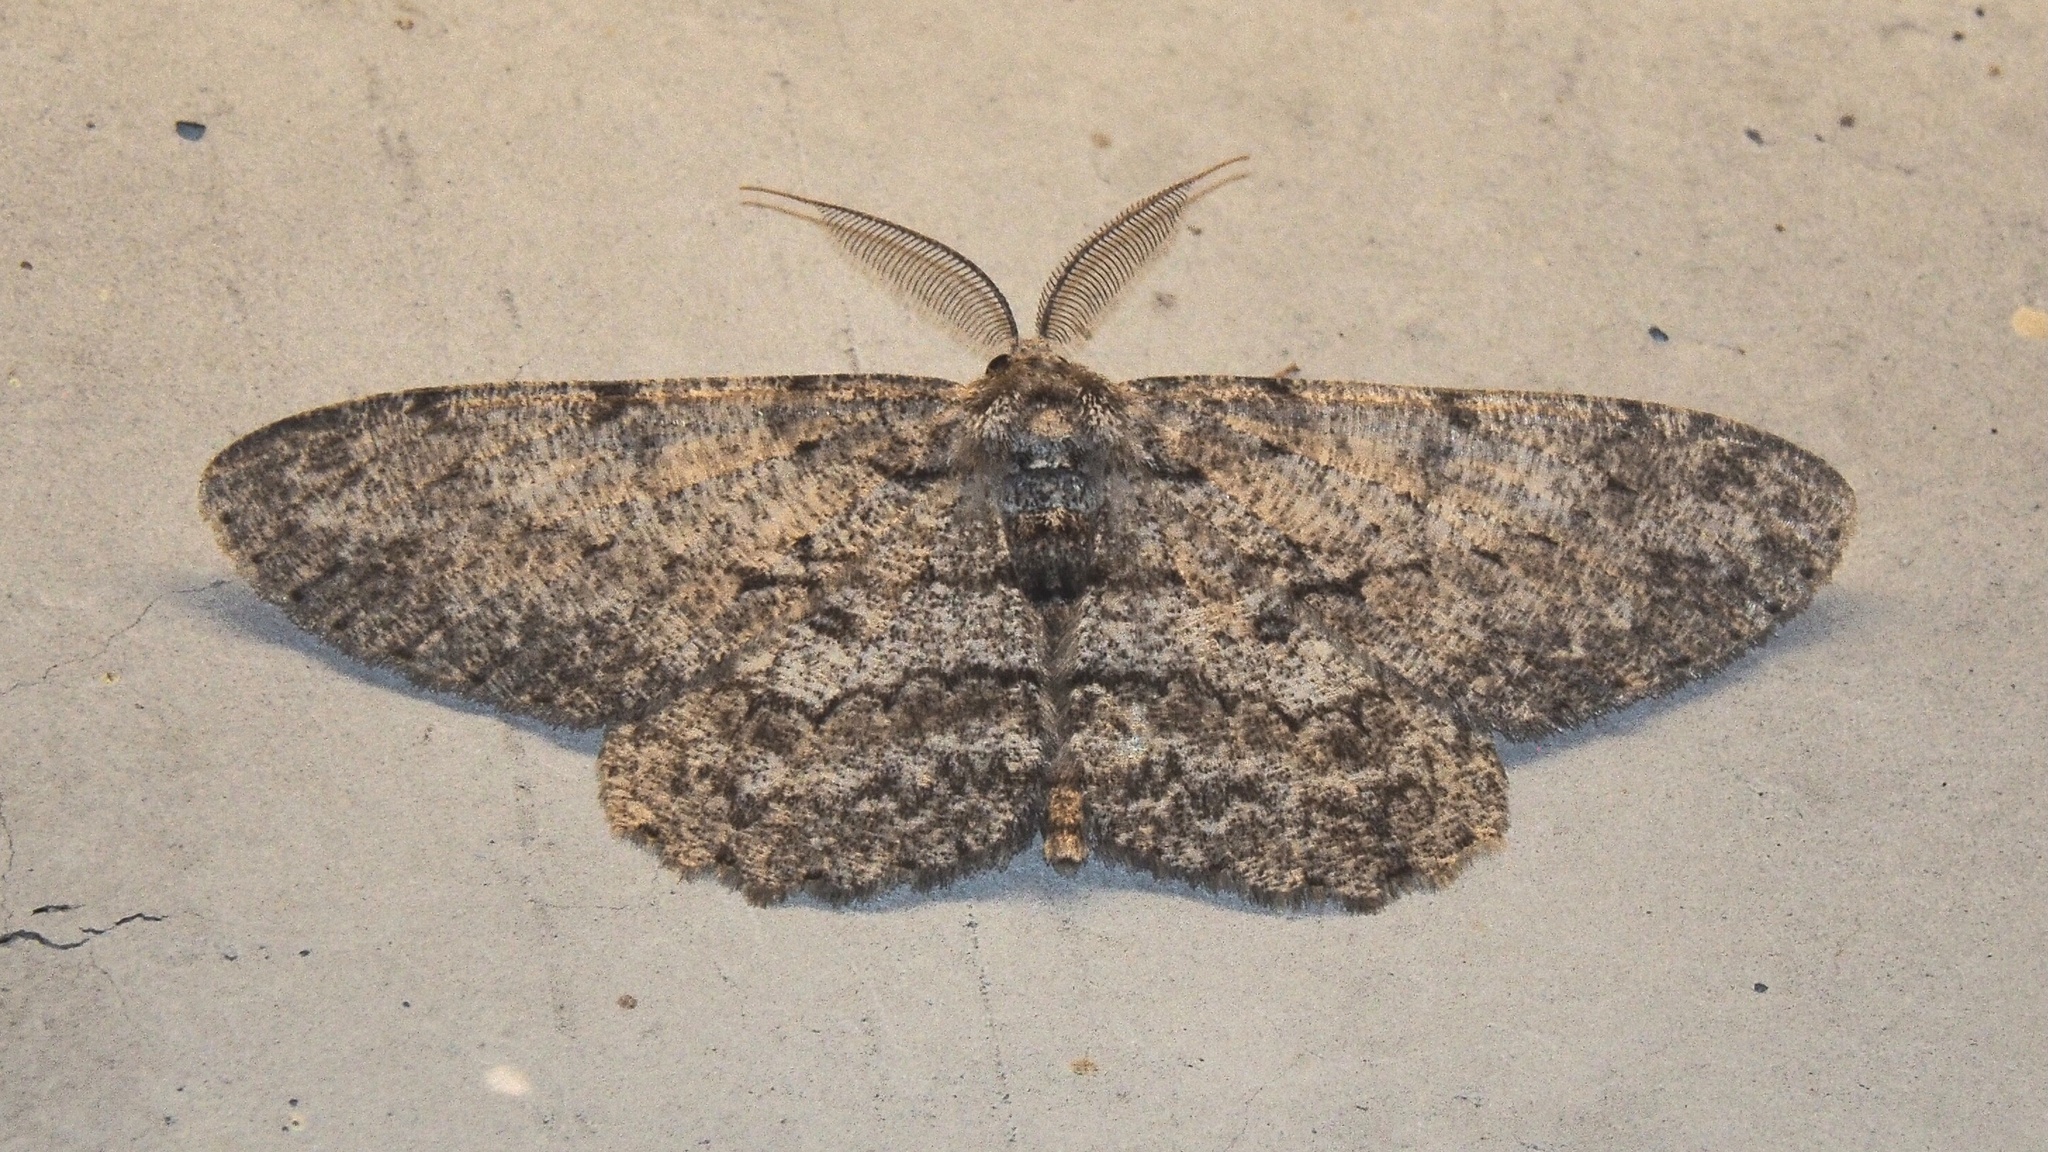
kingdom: Animalia
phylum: Arthropoda
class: Insecta
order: Lepidoptera
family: Geometridae
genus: Hypomecis
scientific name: Hypomecis punctinalis
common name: Pale oak beauty
